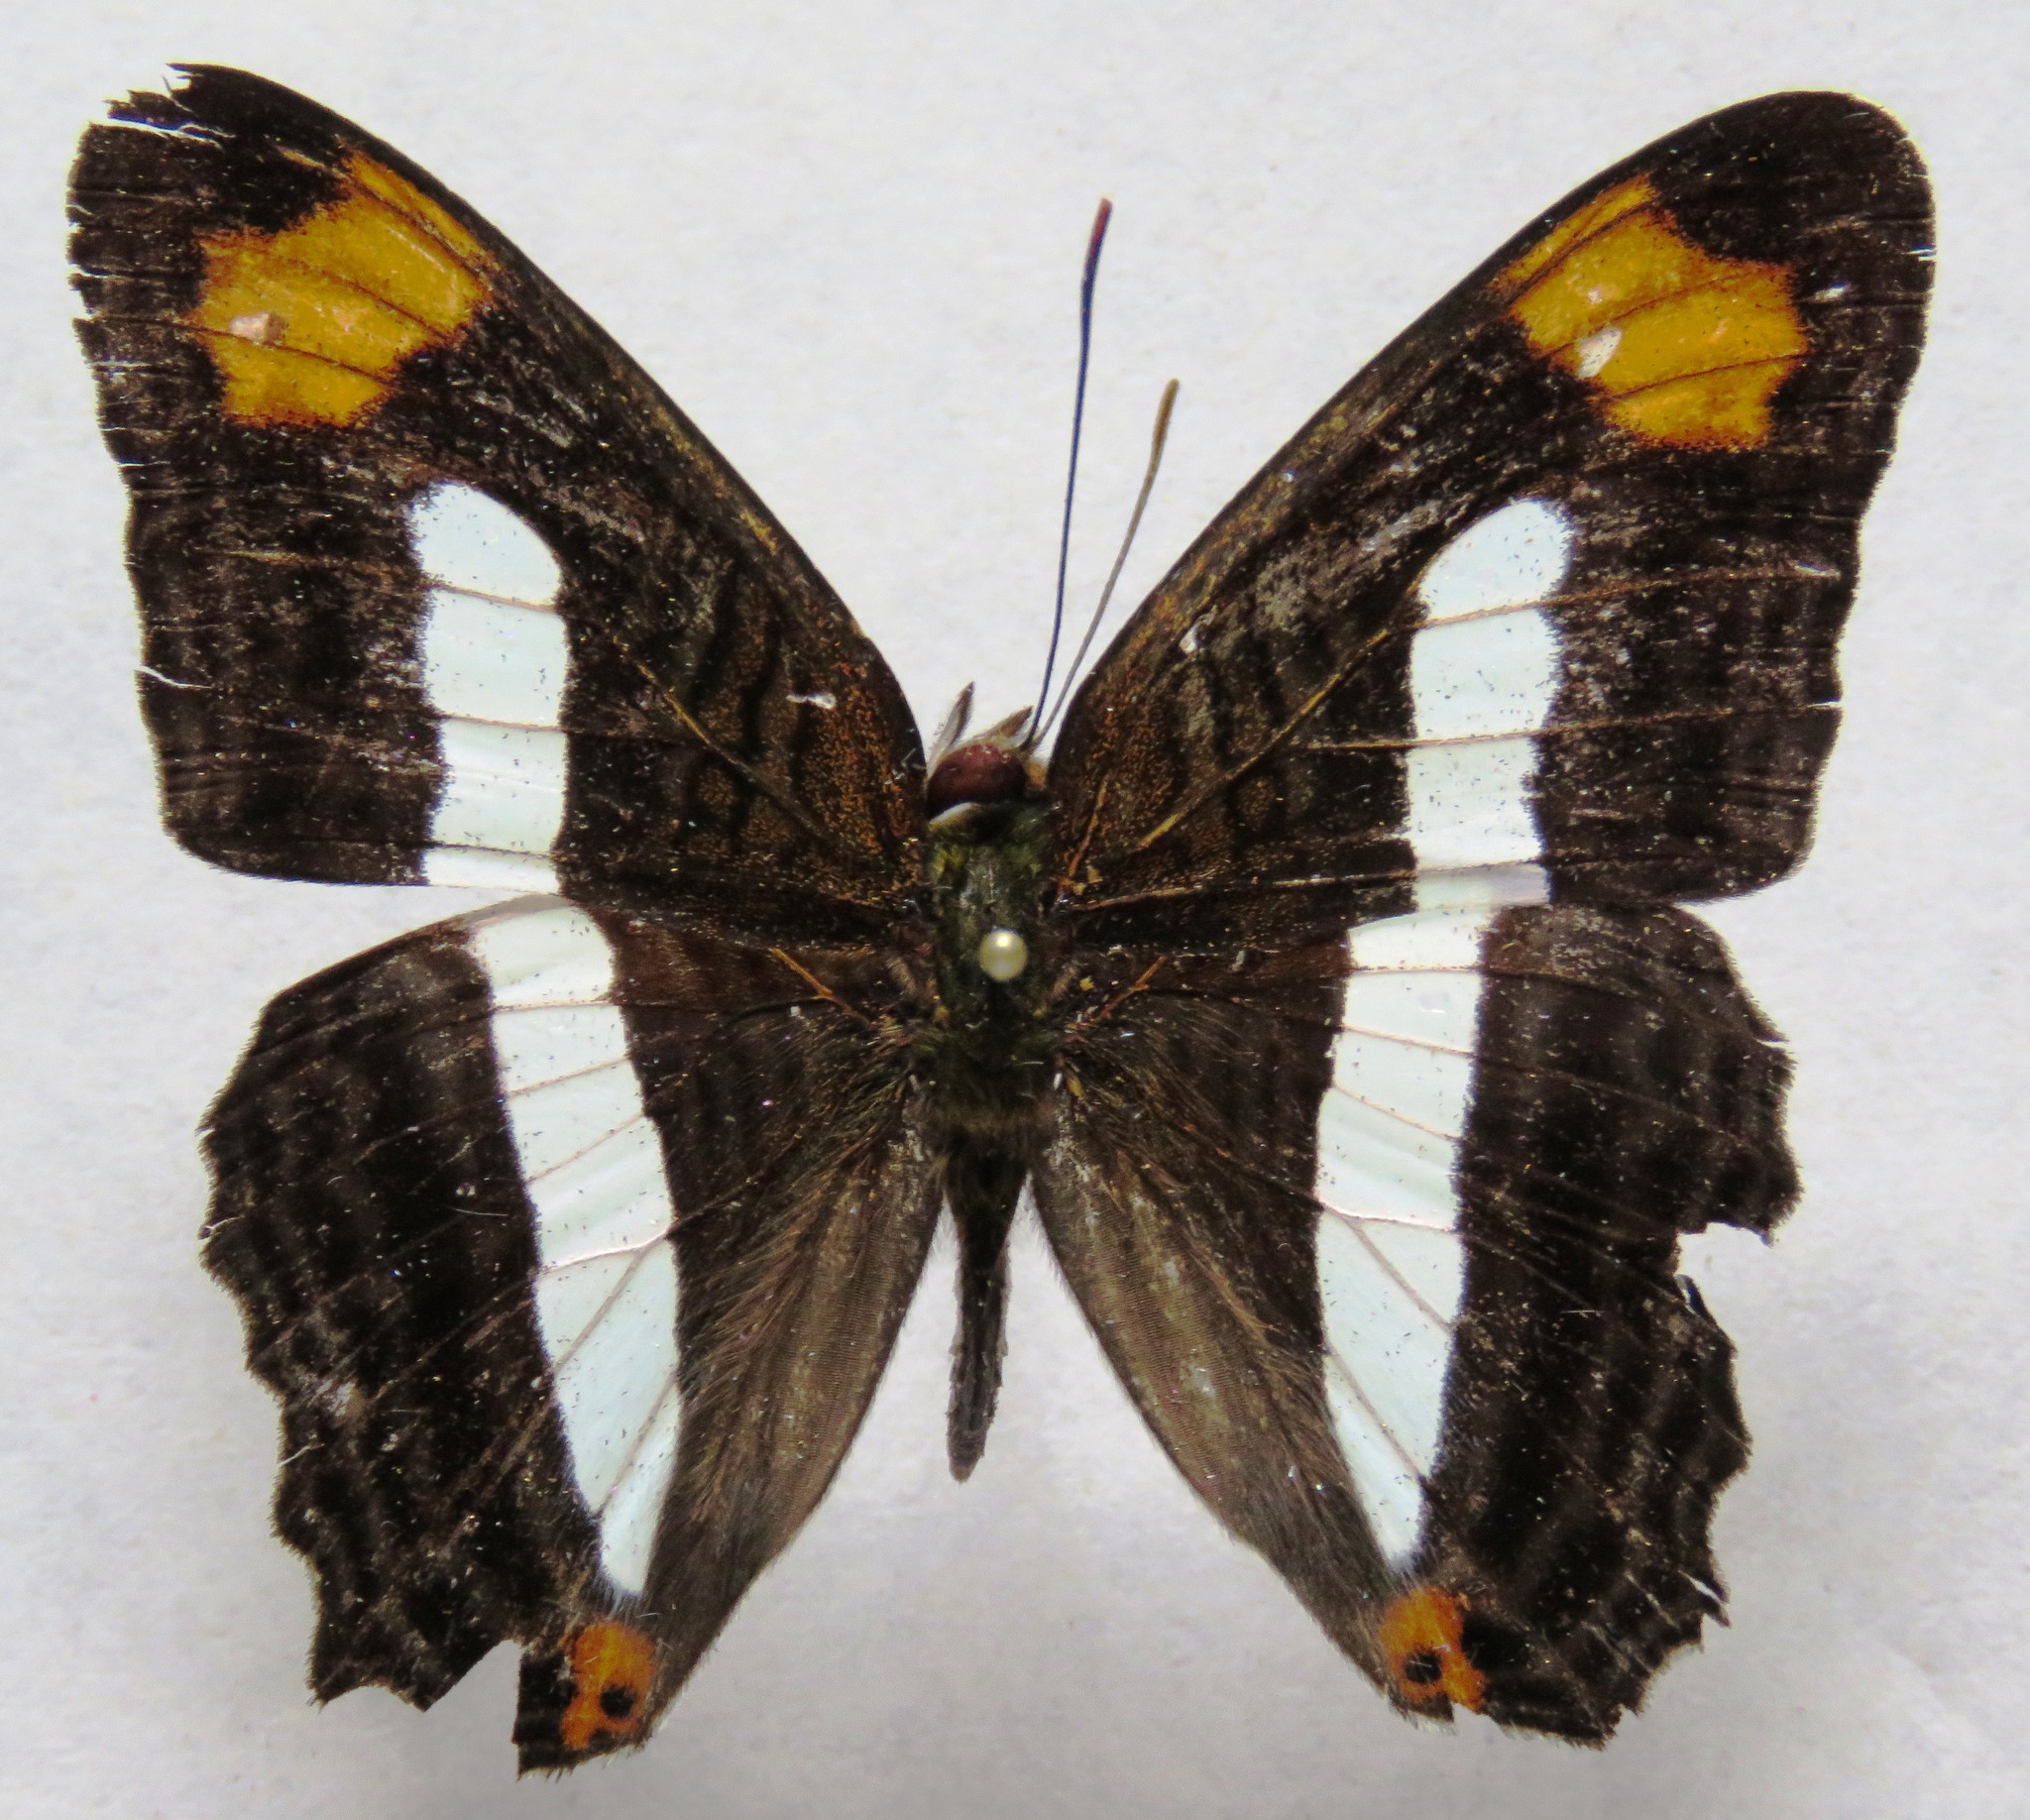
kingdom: Animalia
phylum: Arthropoda
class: Insecta
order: Lepidoptera
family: Nymphalidae
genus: Limenitis
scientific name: Limenitis iphiclus
